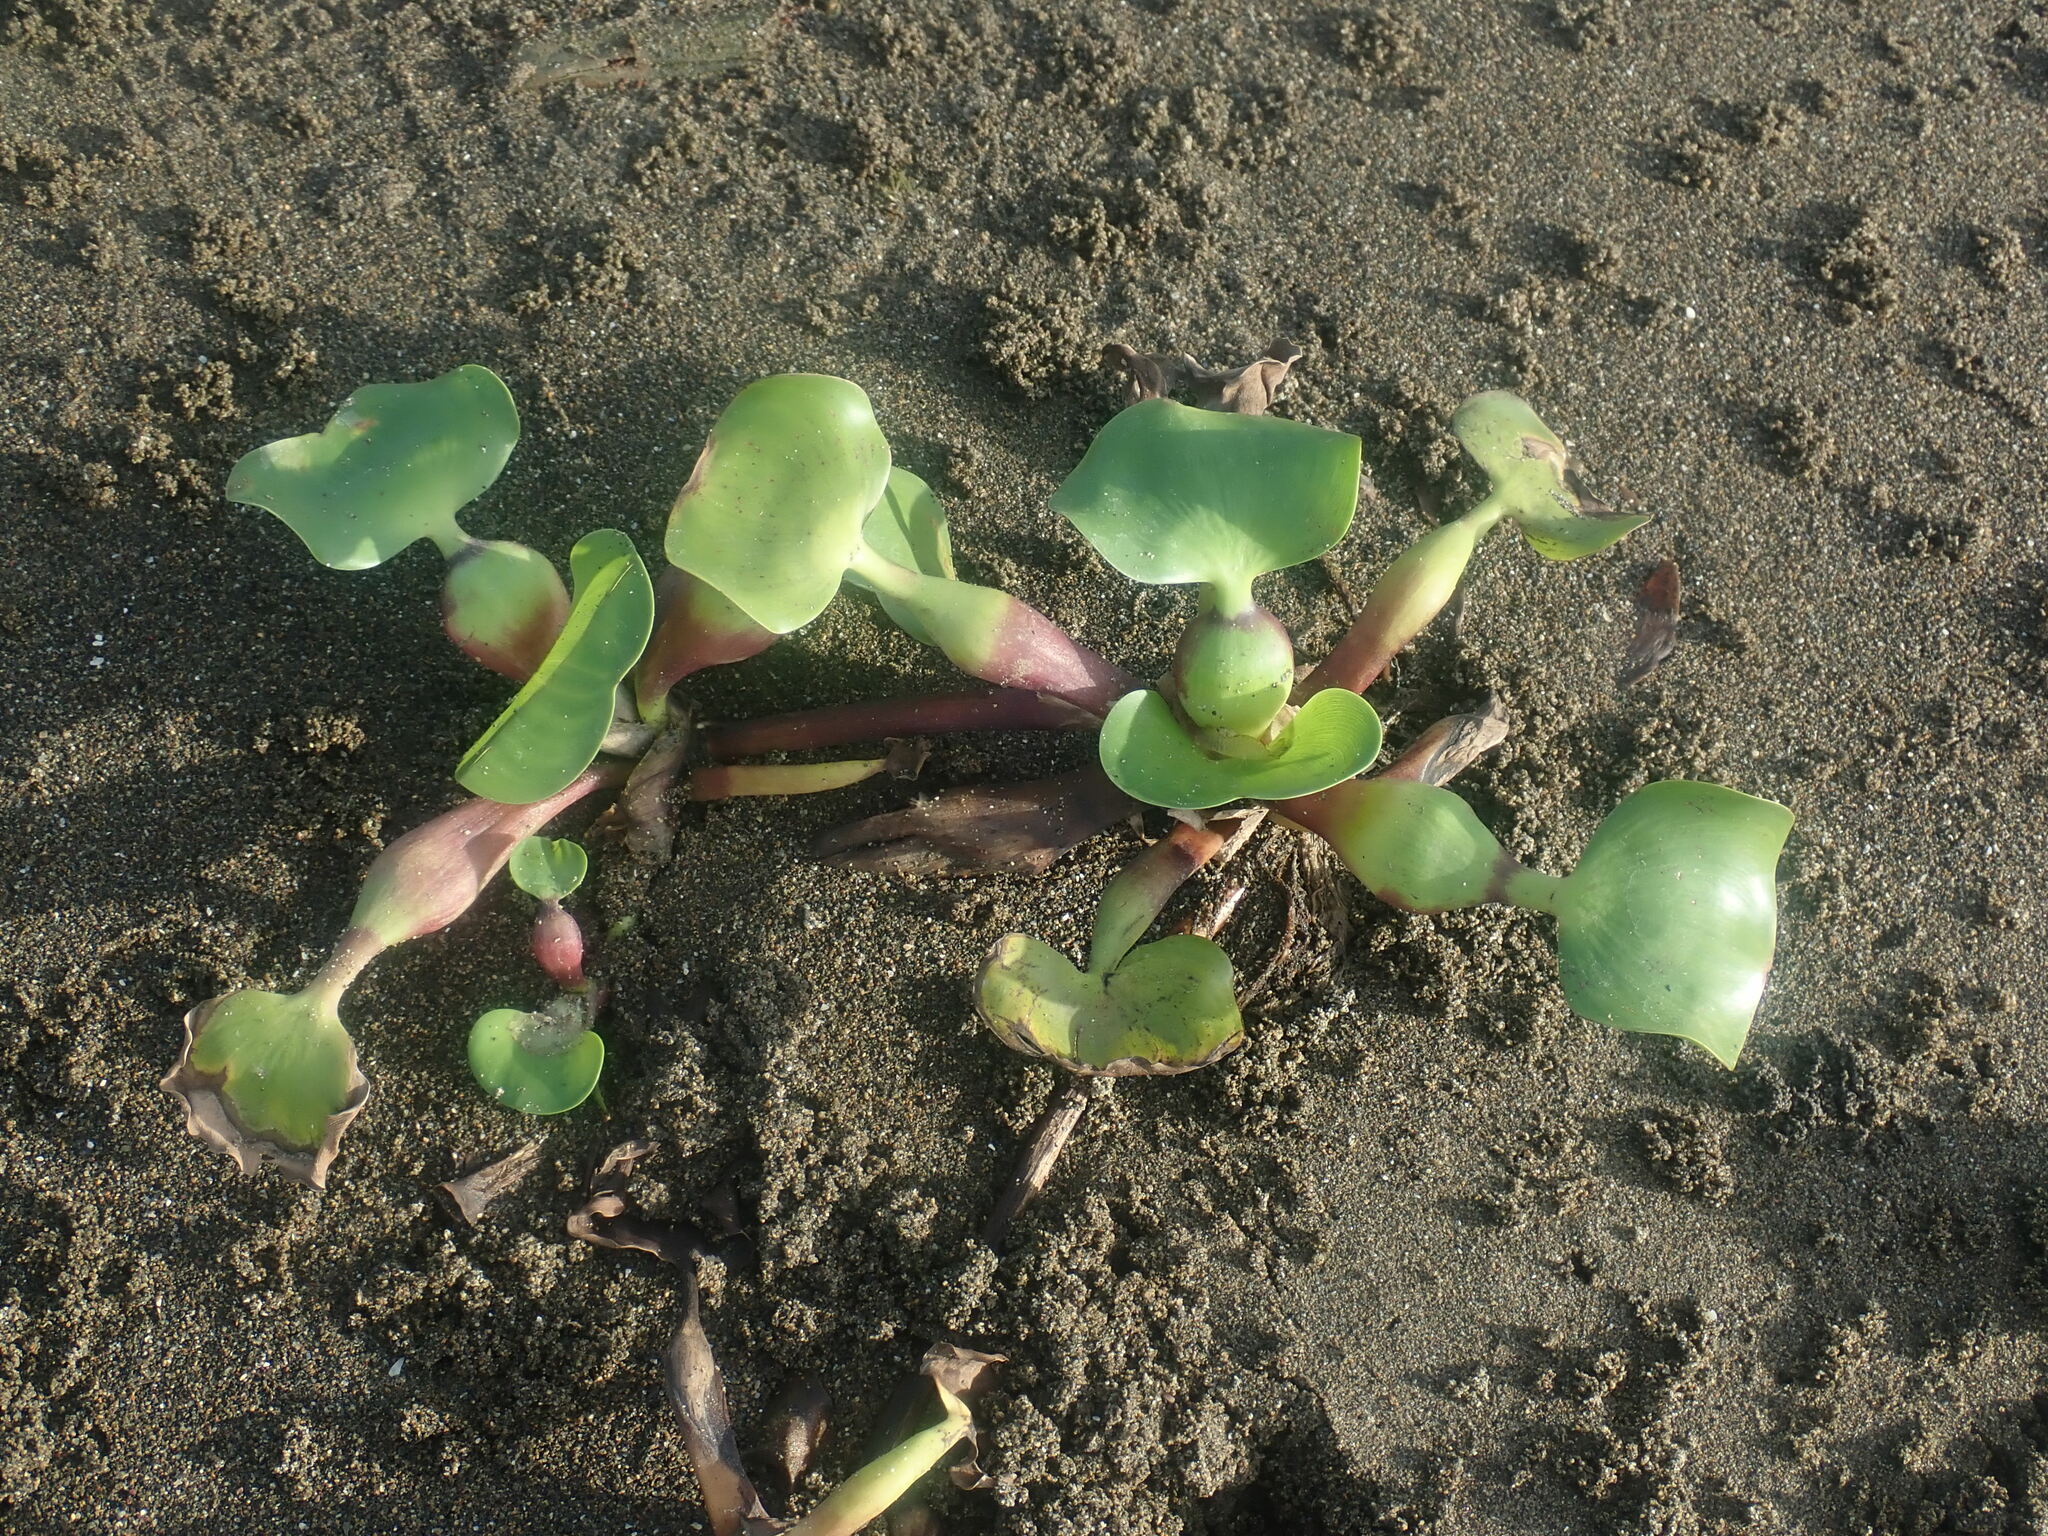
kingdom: Plantae
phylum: Tracheophyta
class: Liliopsida
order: Commelinales
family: Pontederiaceae
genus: Pontederia
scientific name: Pontederia crassipes
